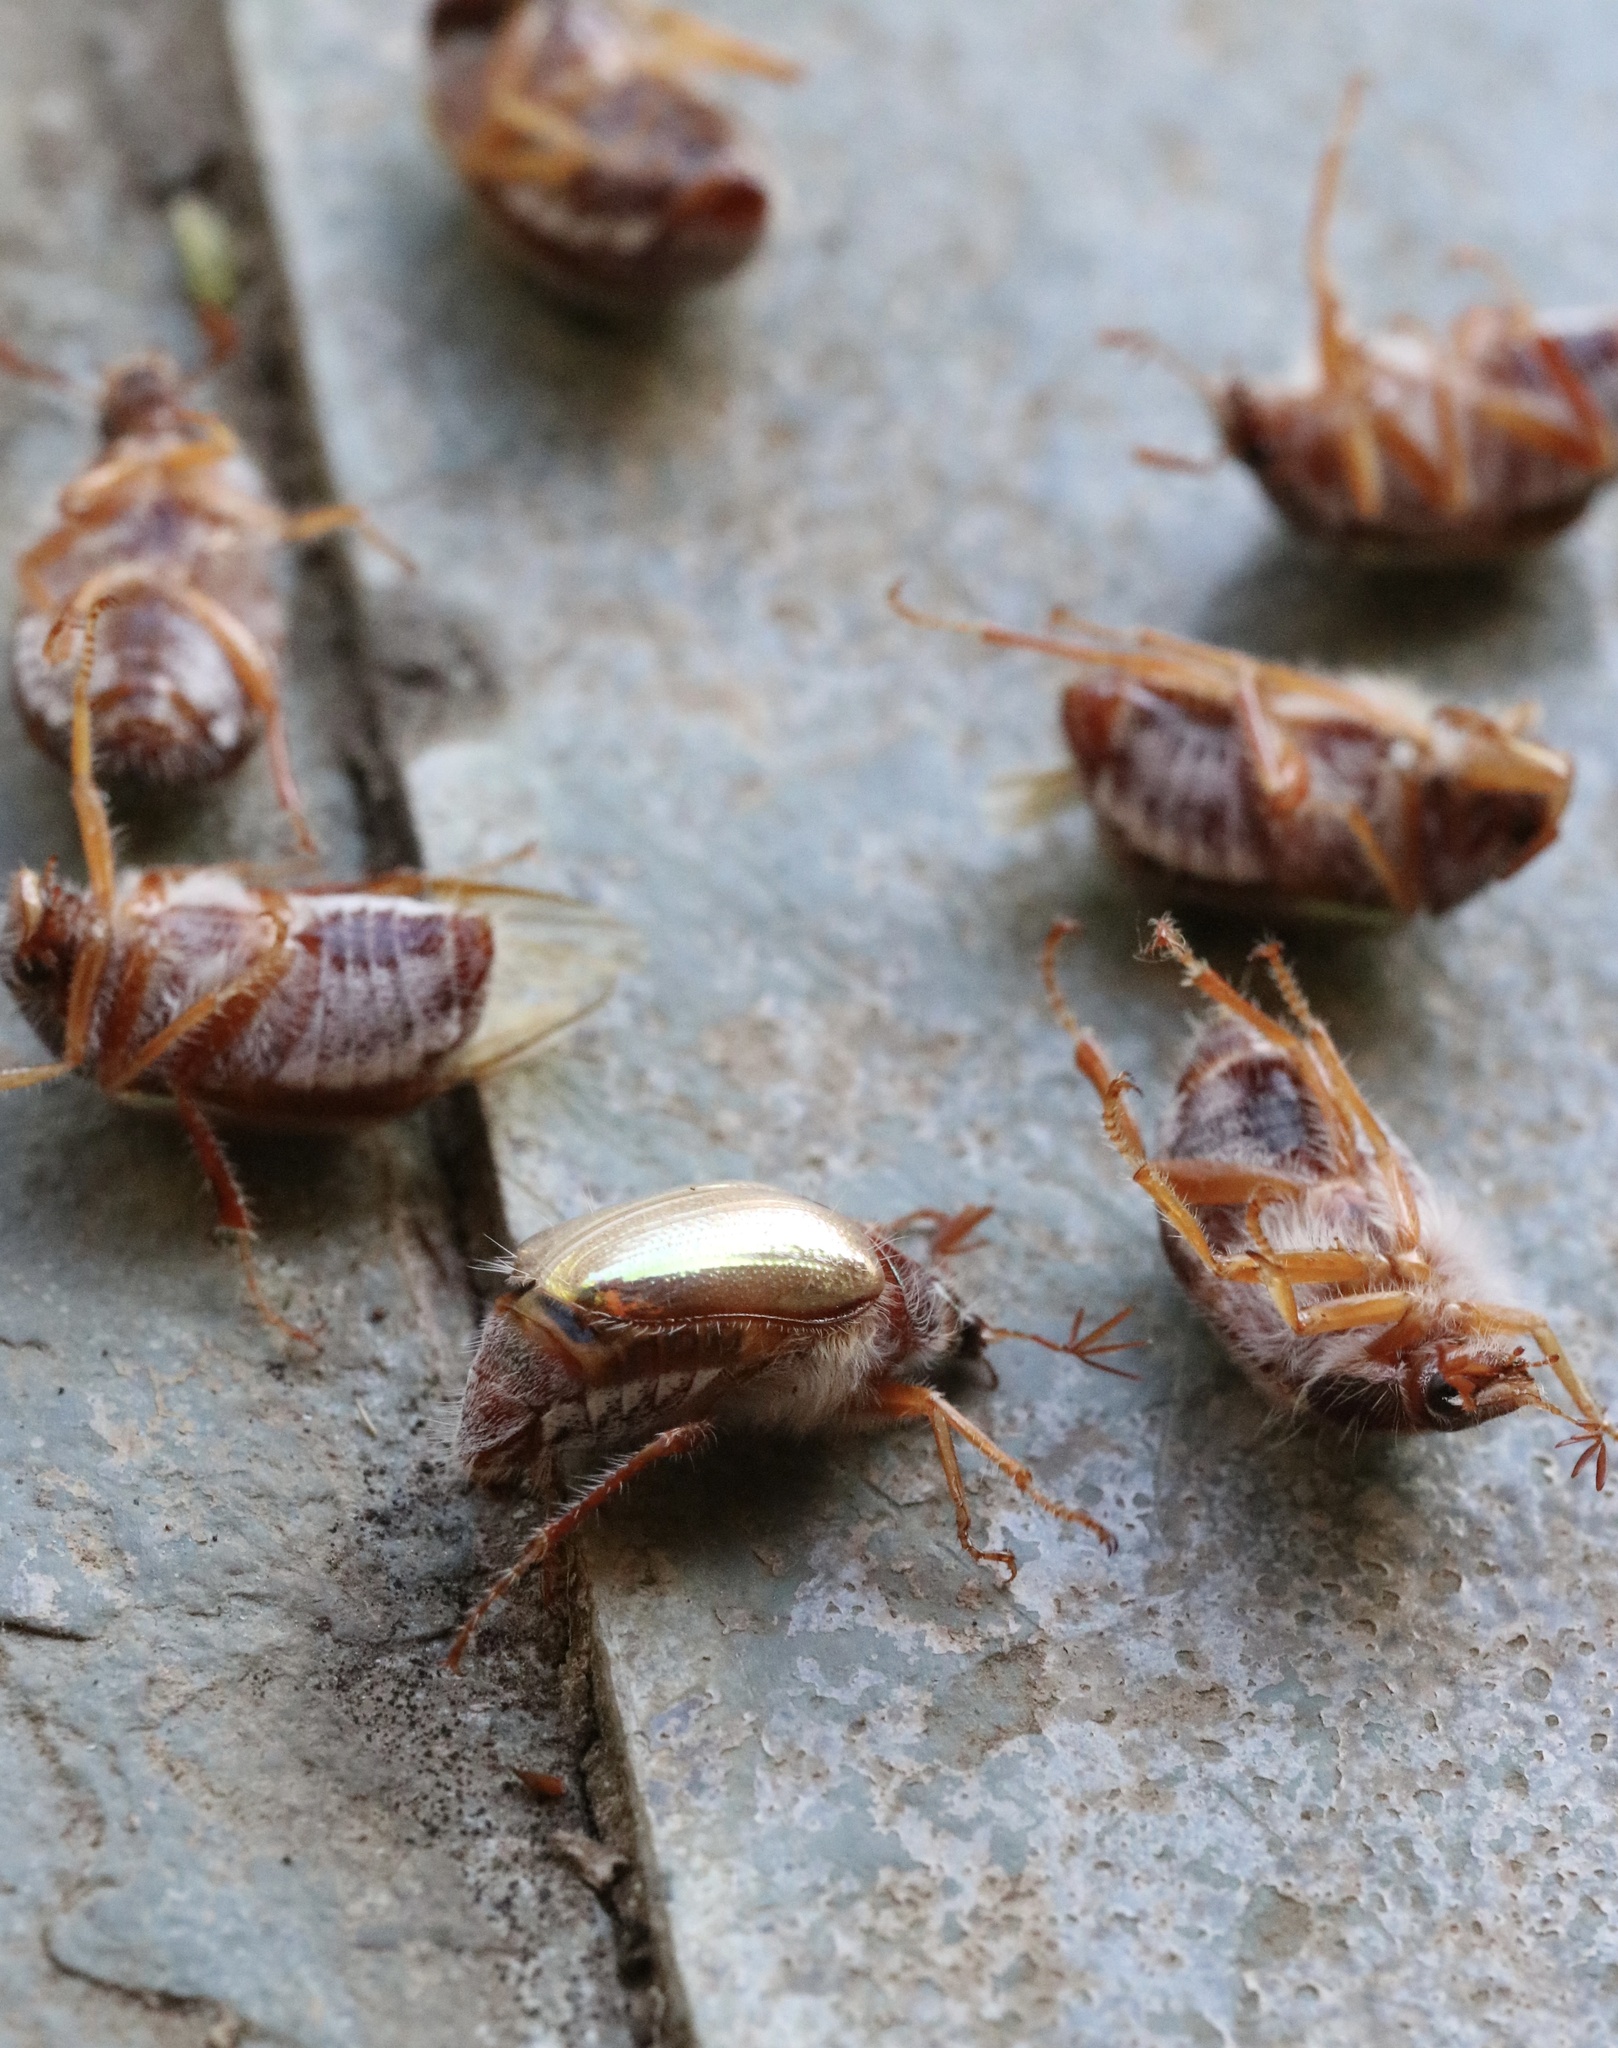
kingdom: Animalia
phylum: Arthropoda
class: Insecta
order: Coleoptera
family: Scarabaeidae
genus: Phytholaema
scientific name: Phytholaema mutabilis
